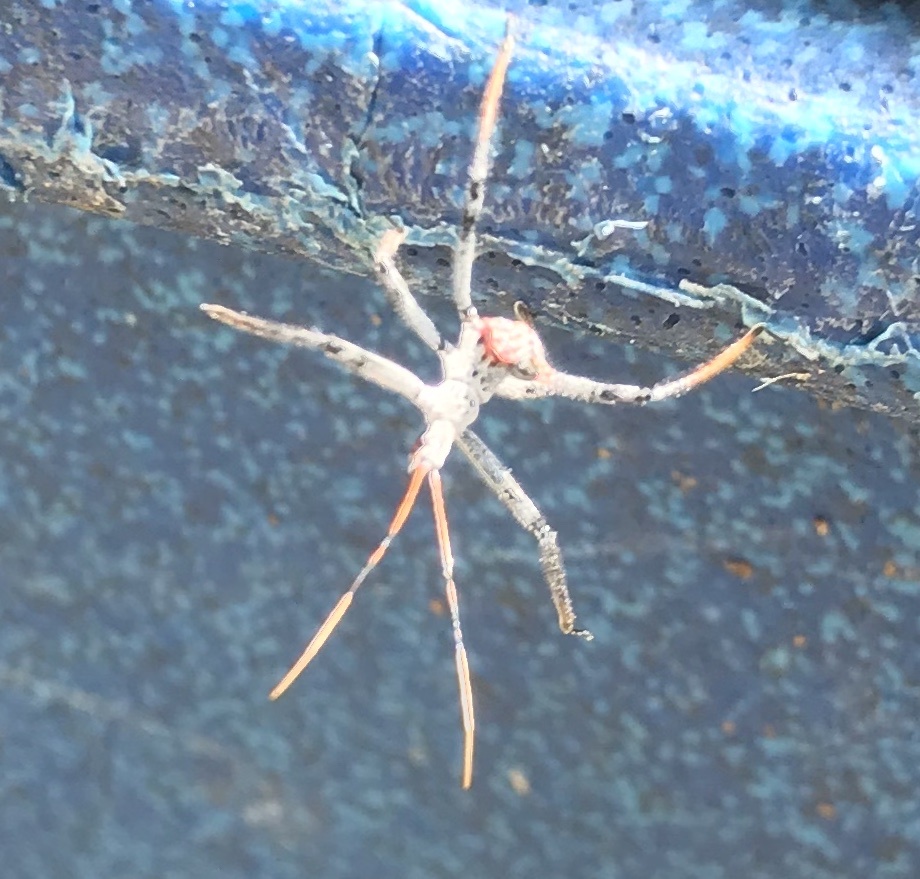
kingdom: Animalia
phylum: Arthropoda
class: Insecta
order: Hemiptera
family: Reduviidae
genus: Arilus
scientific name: Arilus cristatus
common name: North american wheel bug
